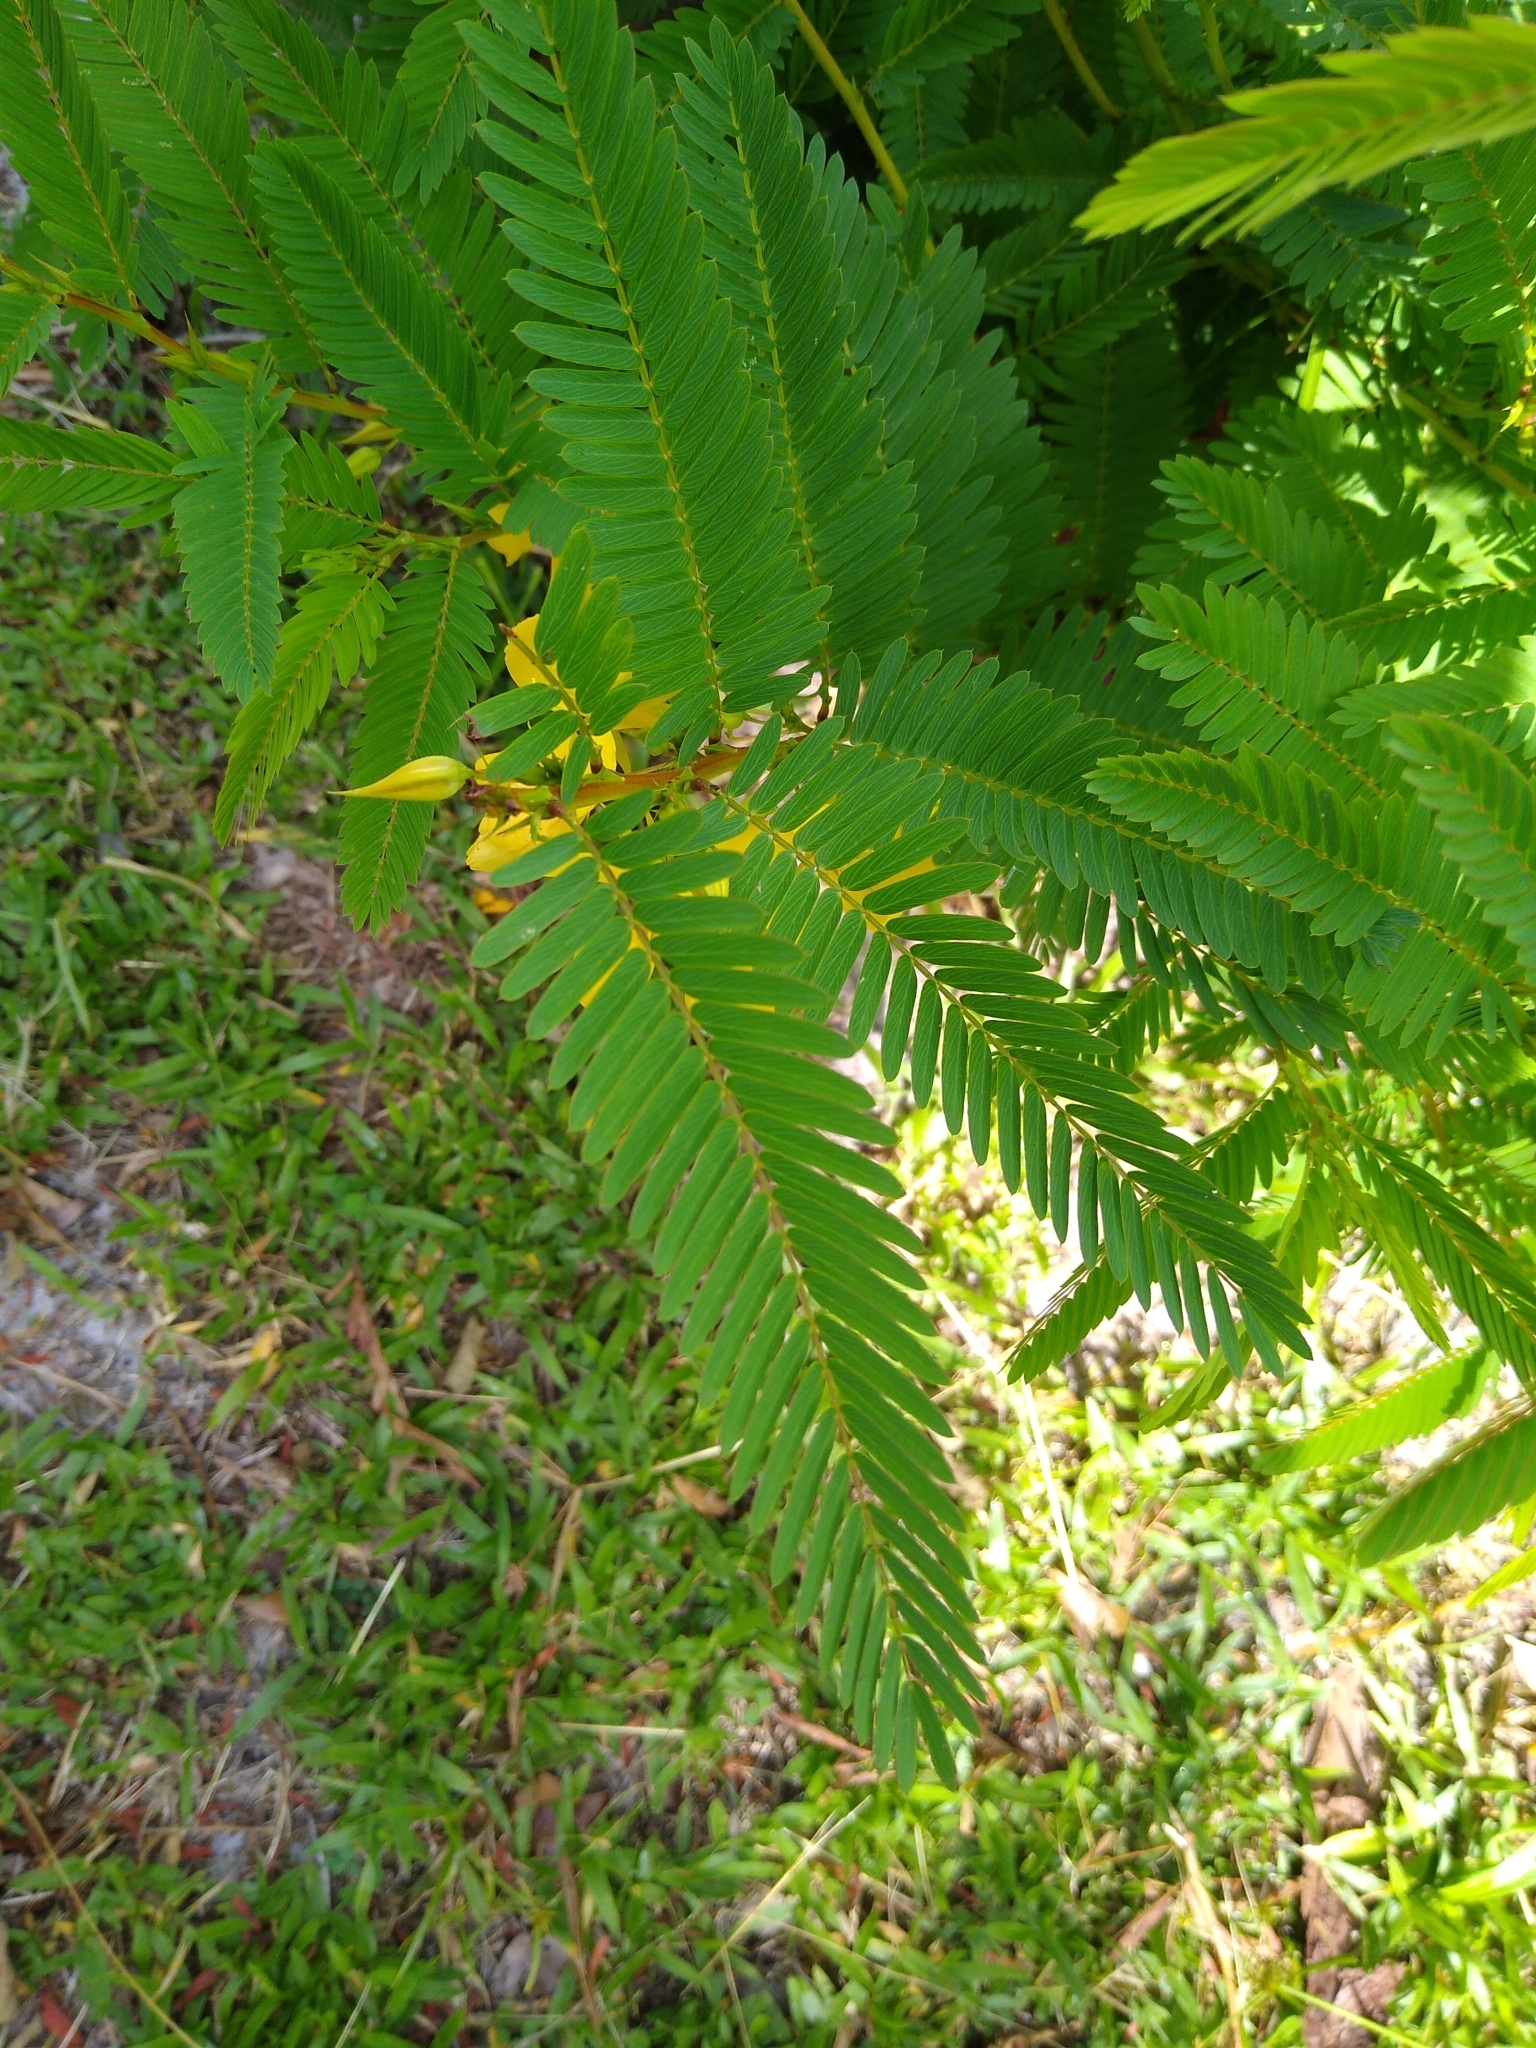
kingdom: Plantae
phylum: Tracheophyta
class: Magnoliopsida
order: Fabales
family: Fabaceae
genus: Chamaecrista
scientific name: Chamaecrista fasciculata
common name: Golden cassia
